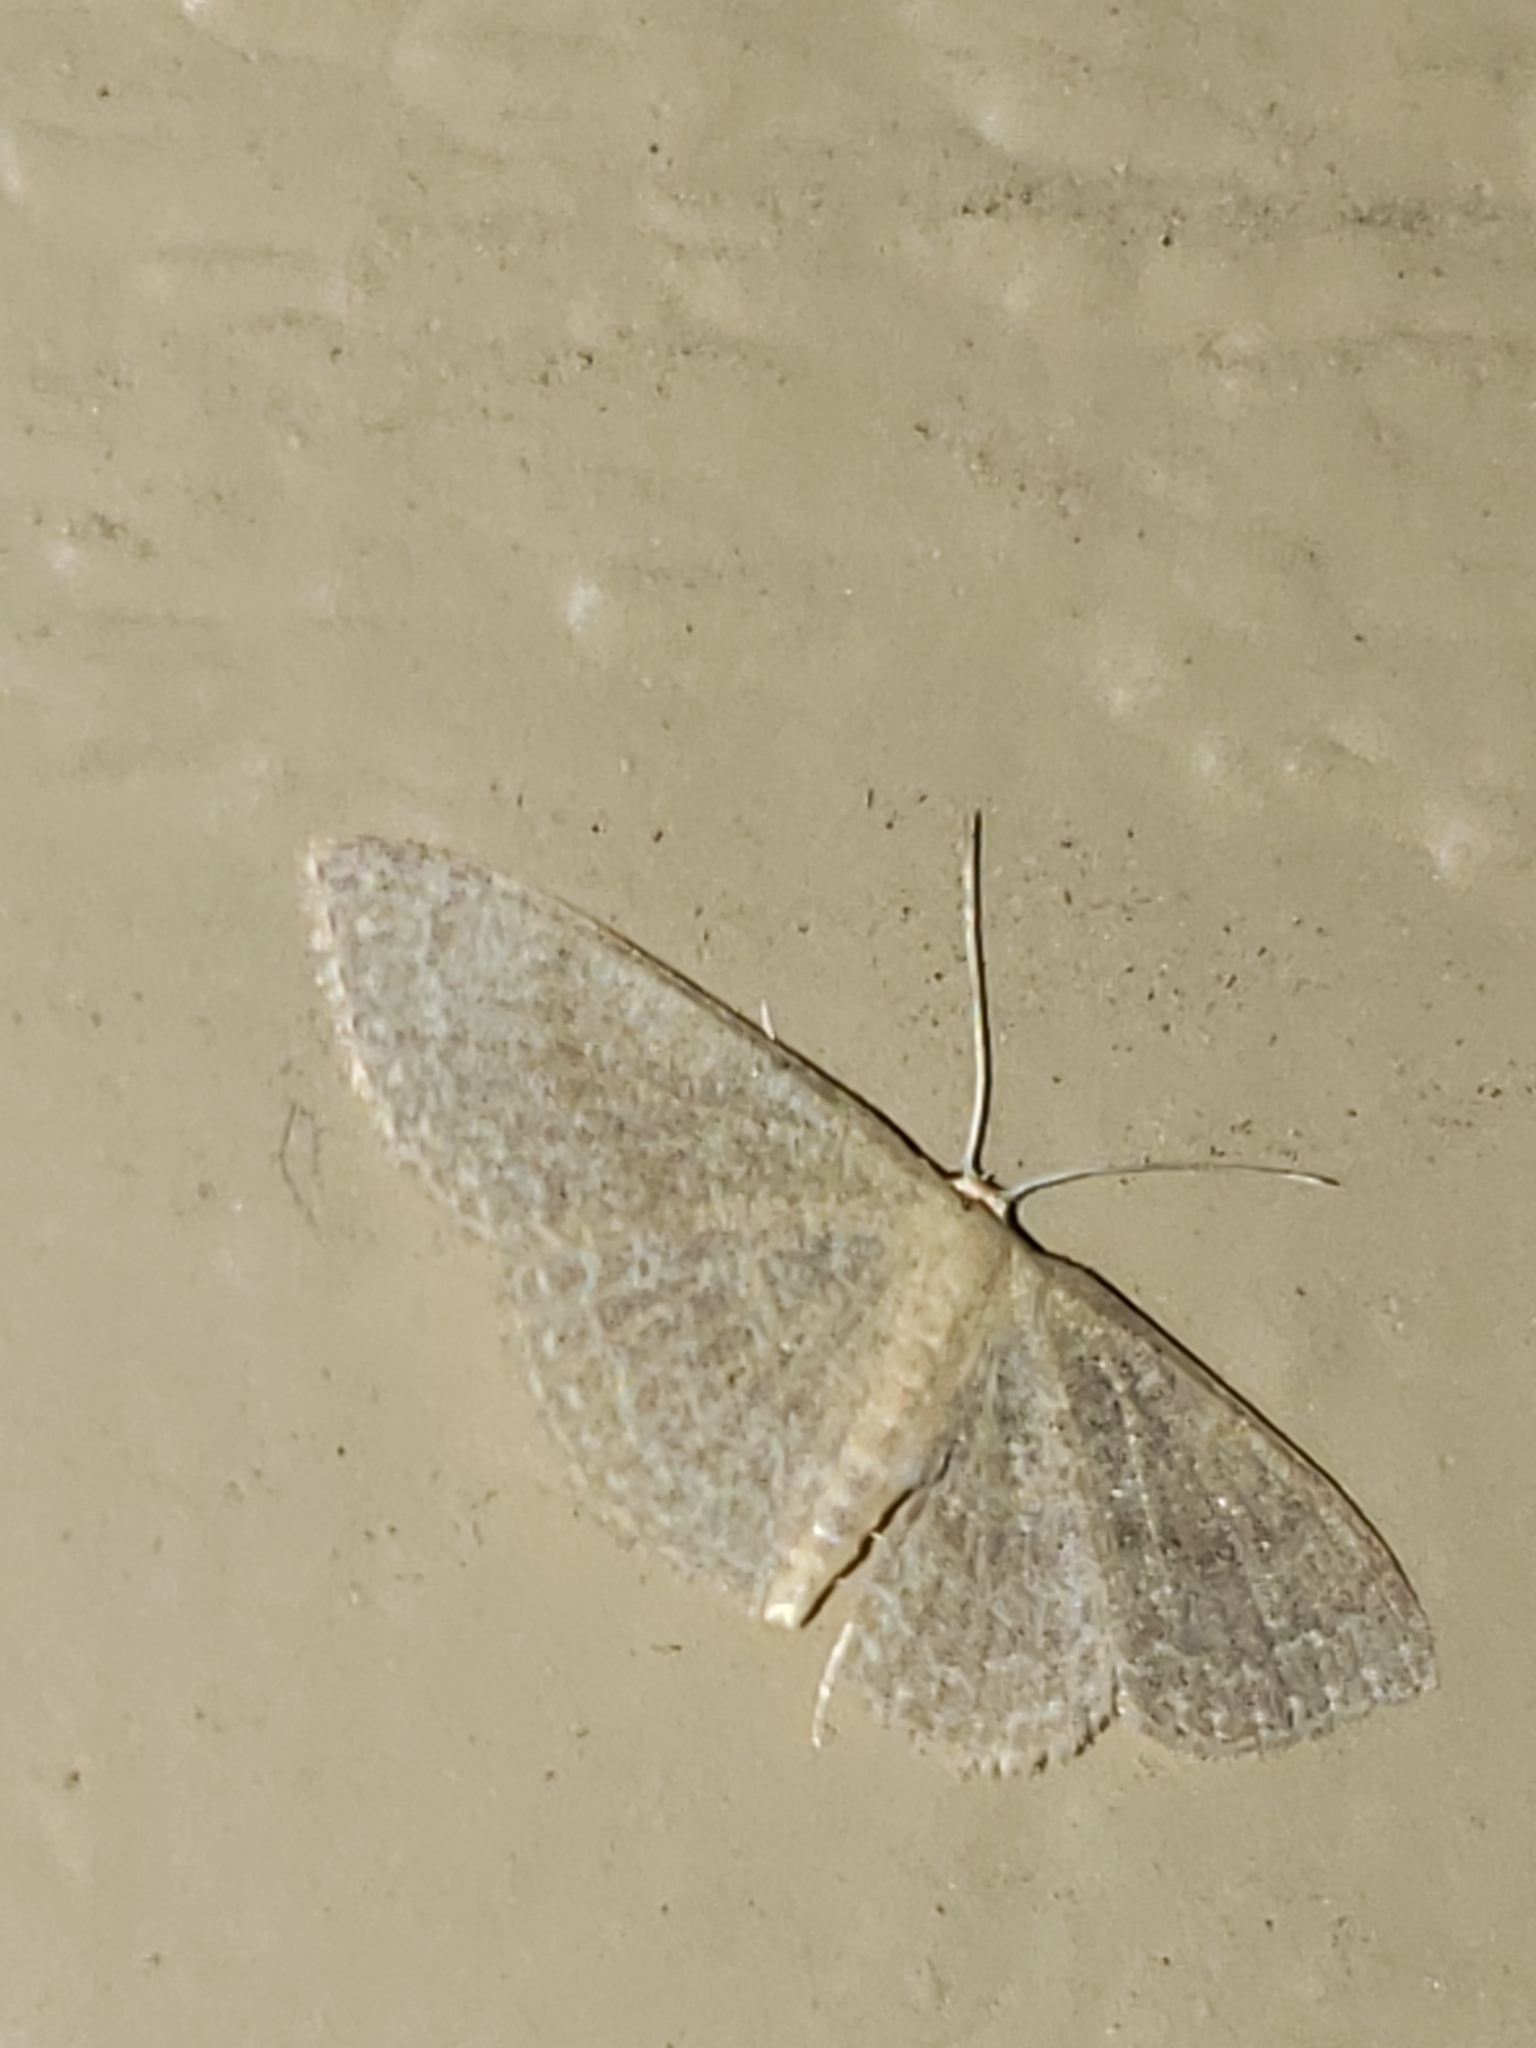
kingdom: Animalia
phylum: Arthropoda
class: Insecta
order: Lepidoptera
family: Geometridae
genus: Pleuroprucha
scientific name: Pleuroprucha insulsaria
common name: Common tan wave
